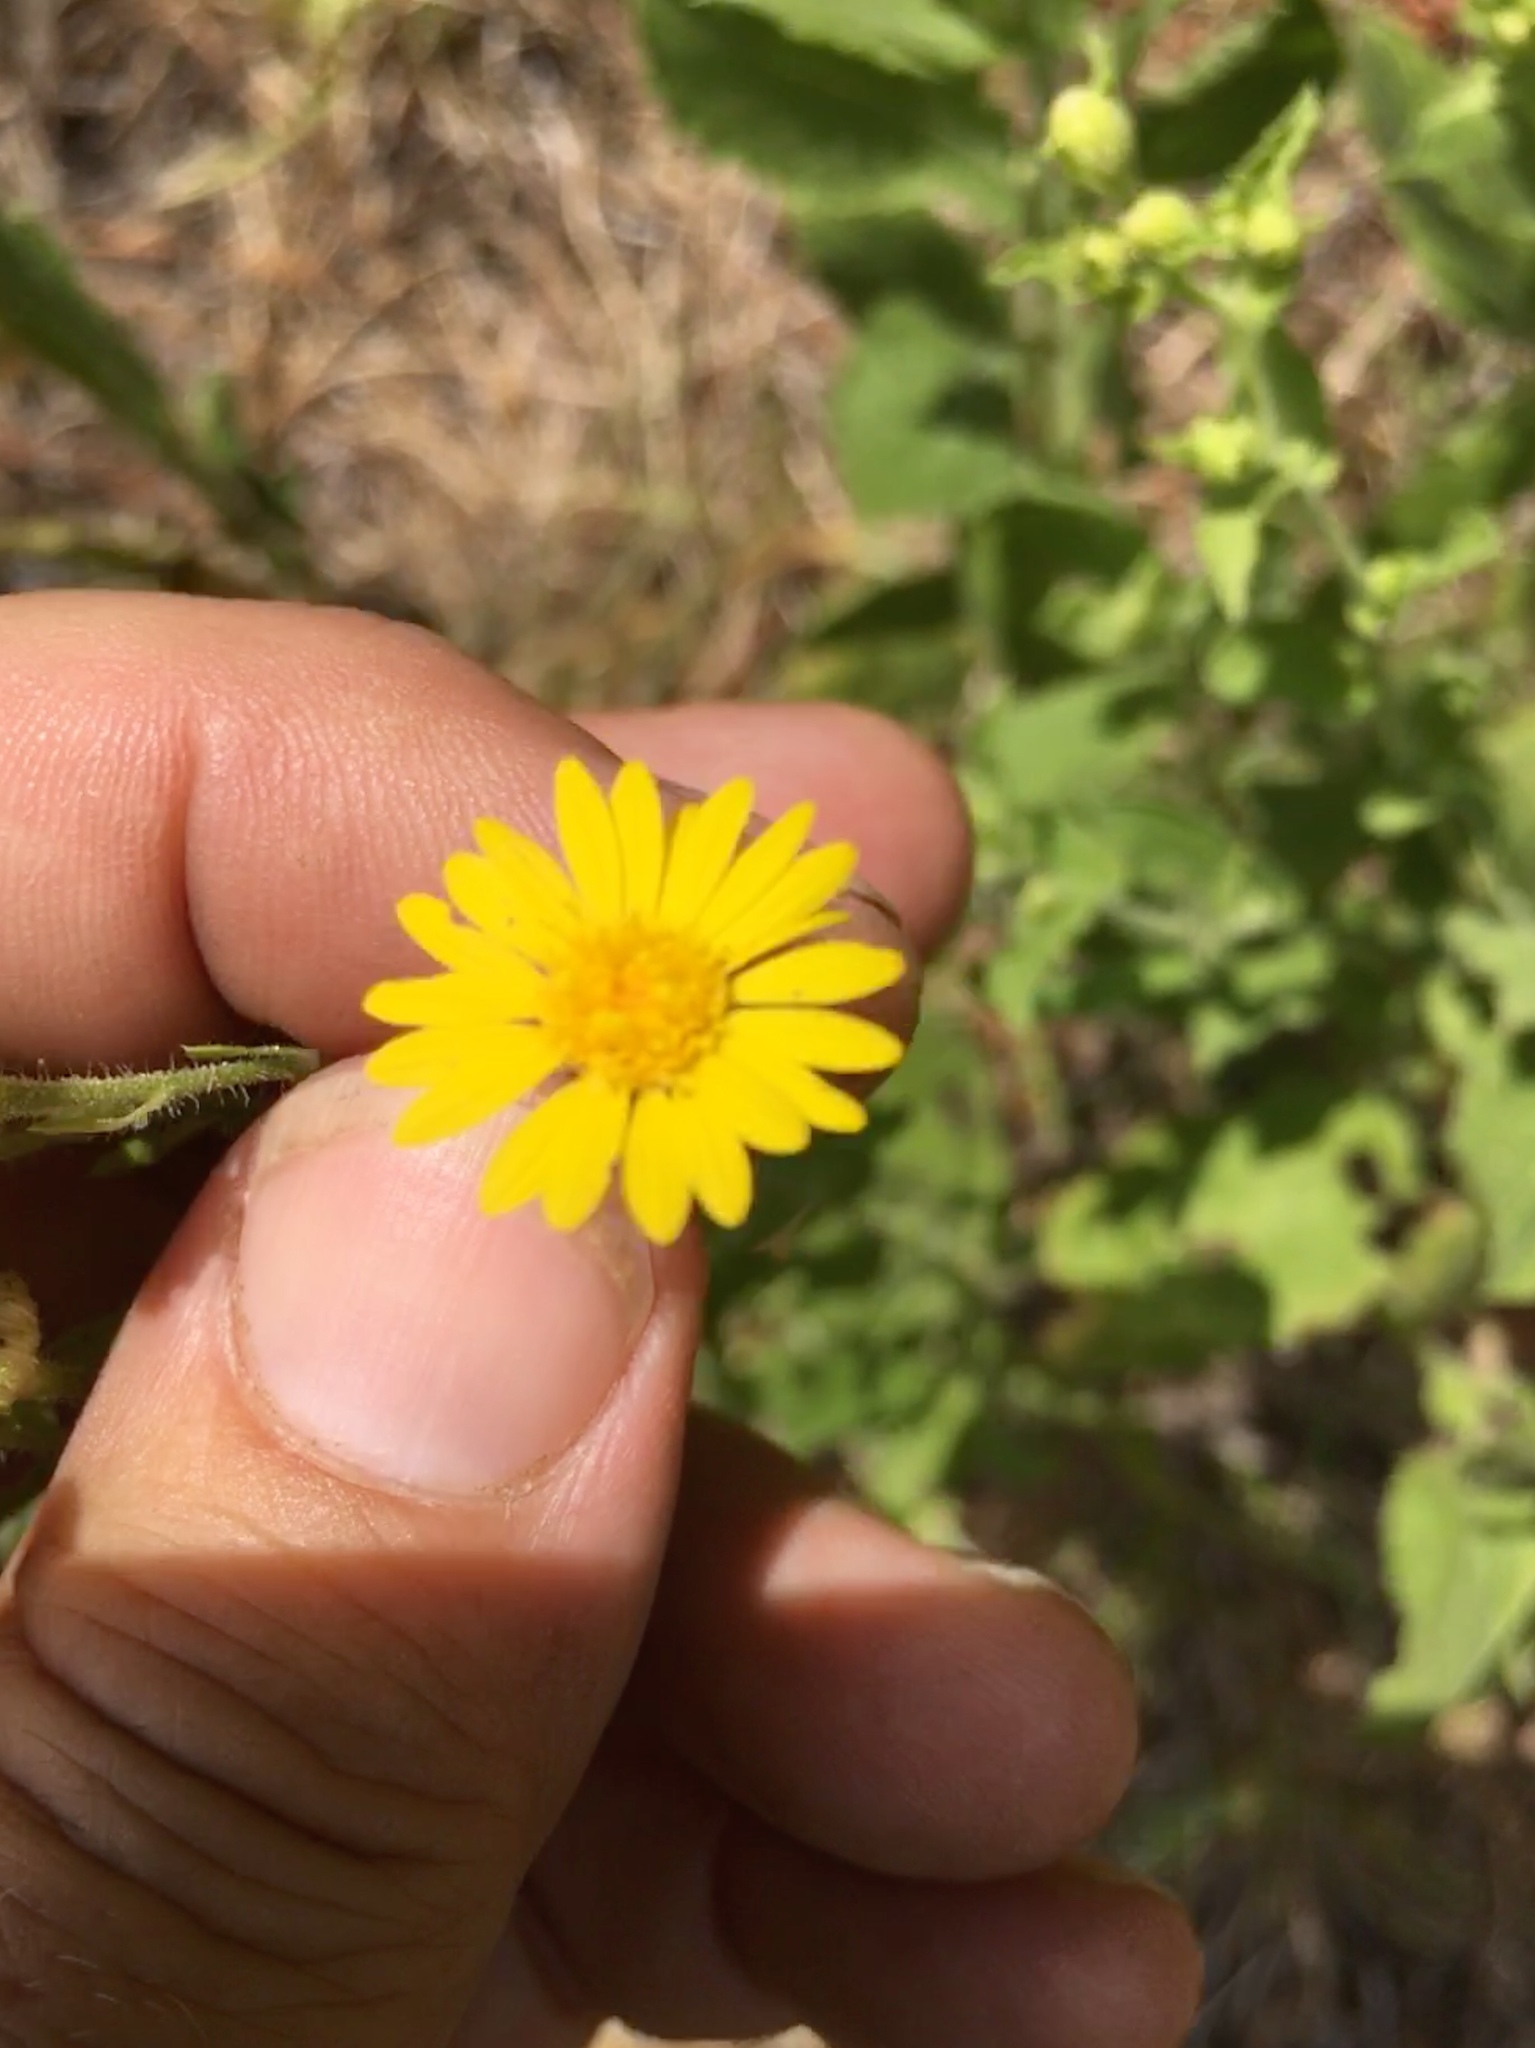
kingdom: Plantae
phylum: Tracheophyta
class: Magnoliopsida
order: Asterales
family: Asteraceae
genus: Heterotheca
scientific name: Heterotheca subaxillaris
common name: Camphorweed
